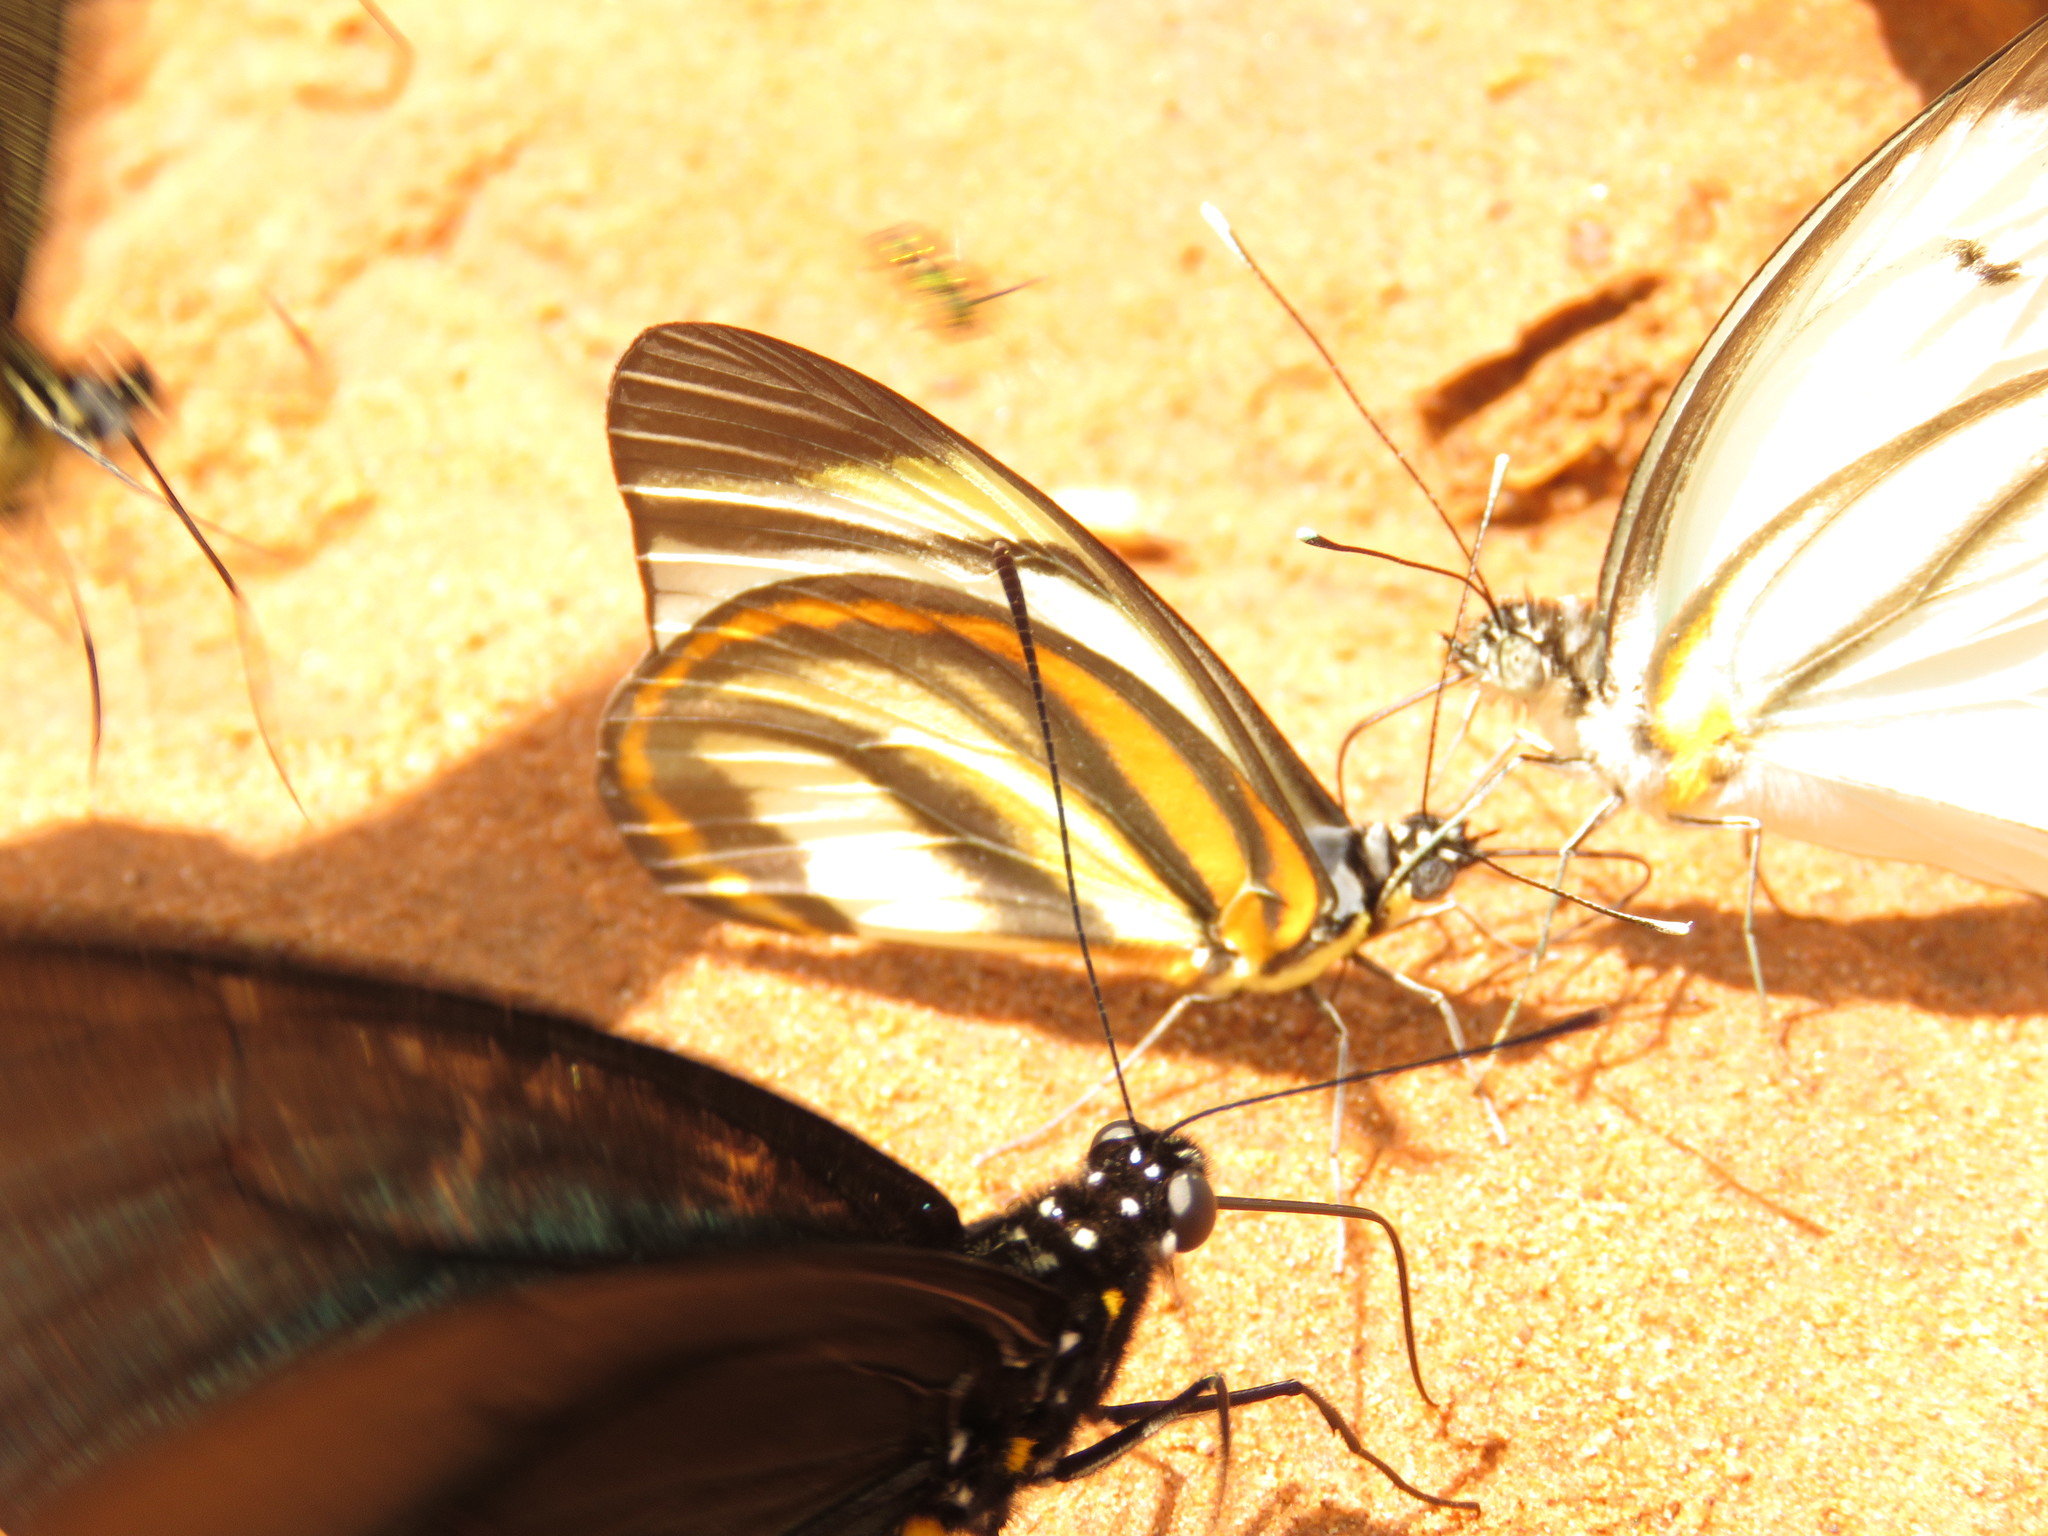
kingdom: Animalia
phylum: Arthropoda
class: Insecta
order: Lepidoptera
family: Pieridae
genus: Cunizza
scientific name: Cunizza hirlanda
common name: Hirlanda white
